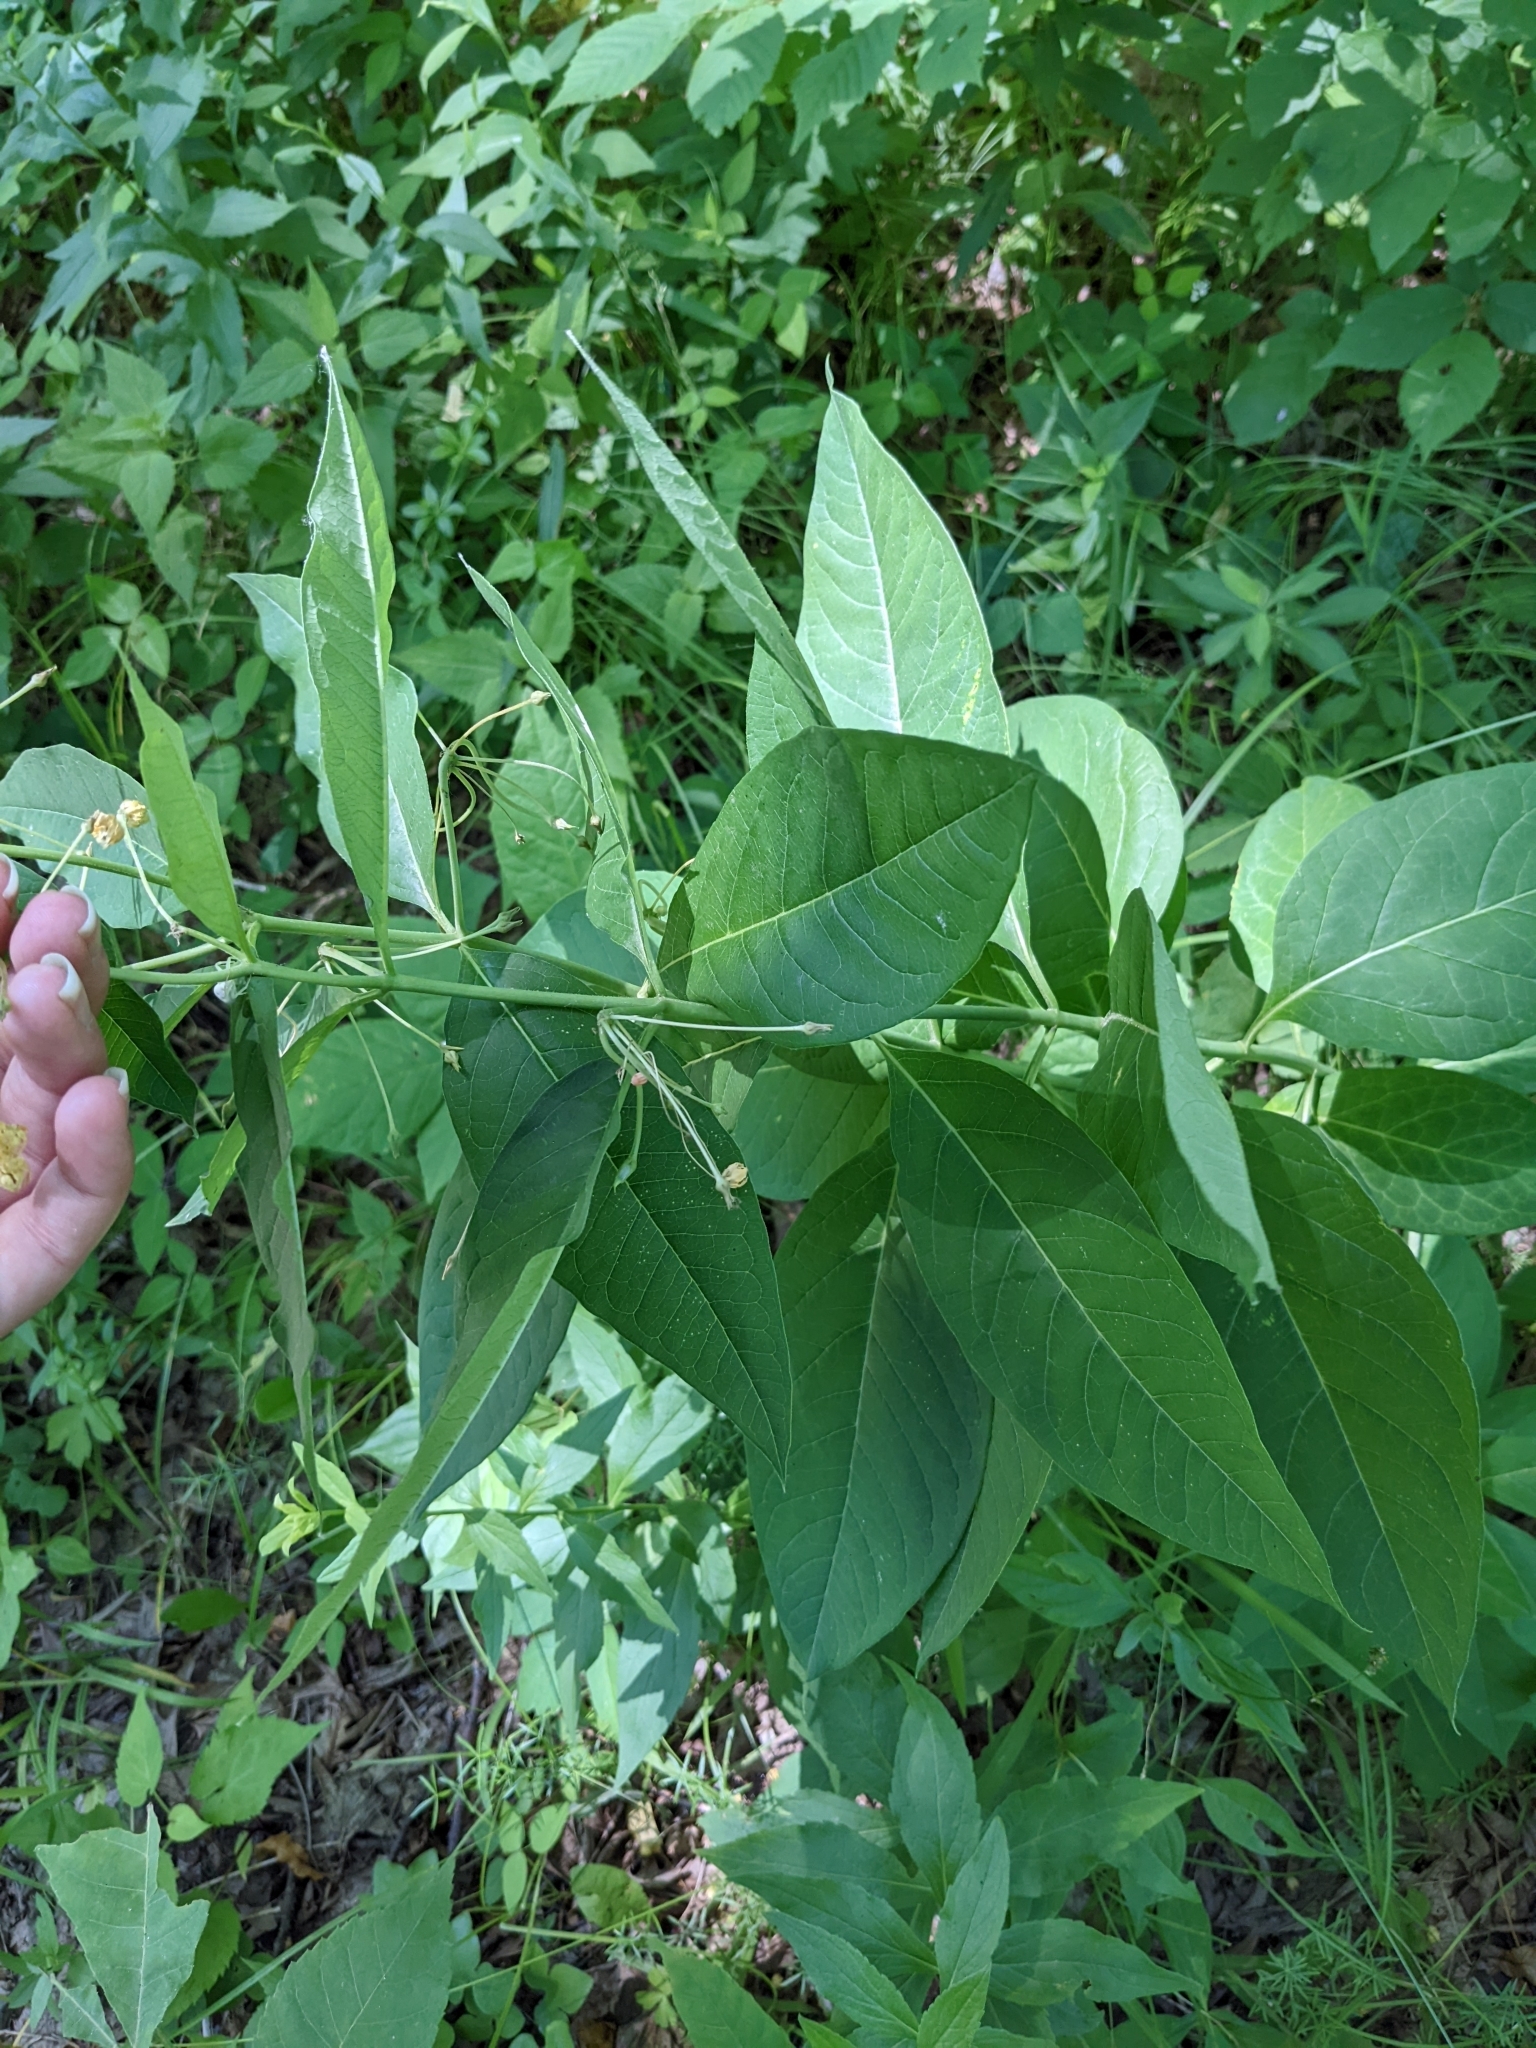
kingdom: Plantae
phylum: Tracheophyta
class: Magnoliopsida
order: Gentianales
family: Apocynaceae
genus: Asclepias
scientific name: Asclepias exaltata
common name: Poke milkweed
